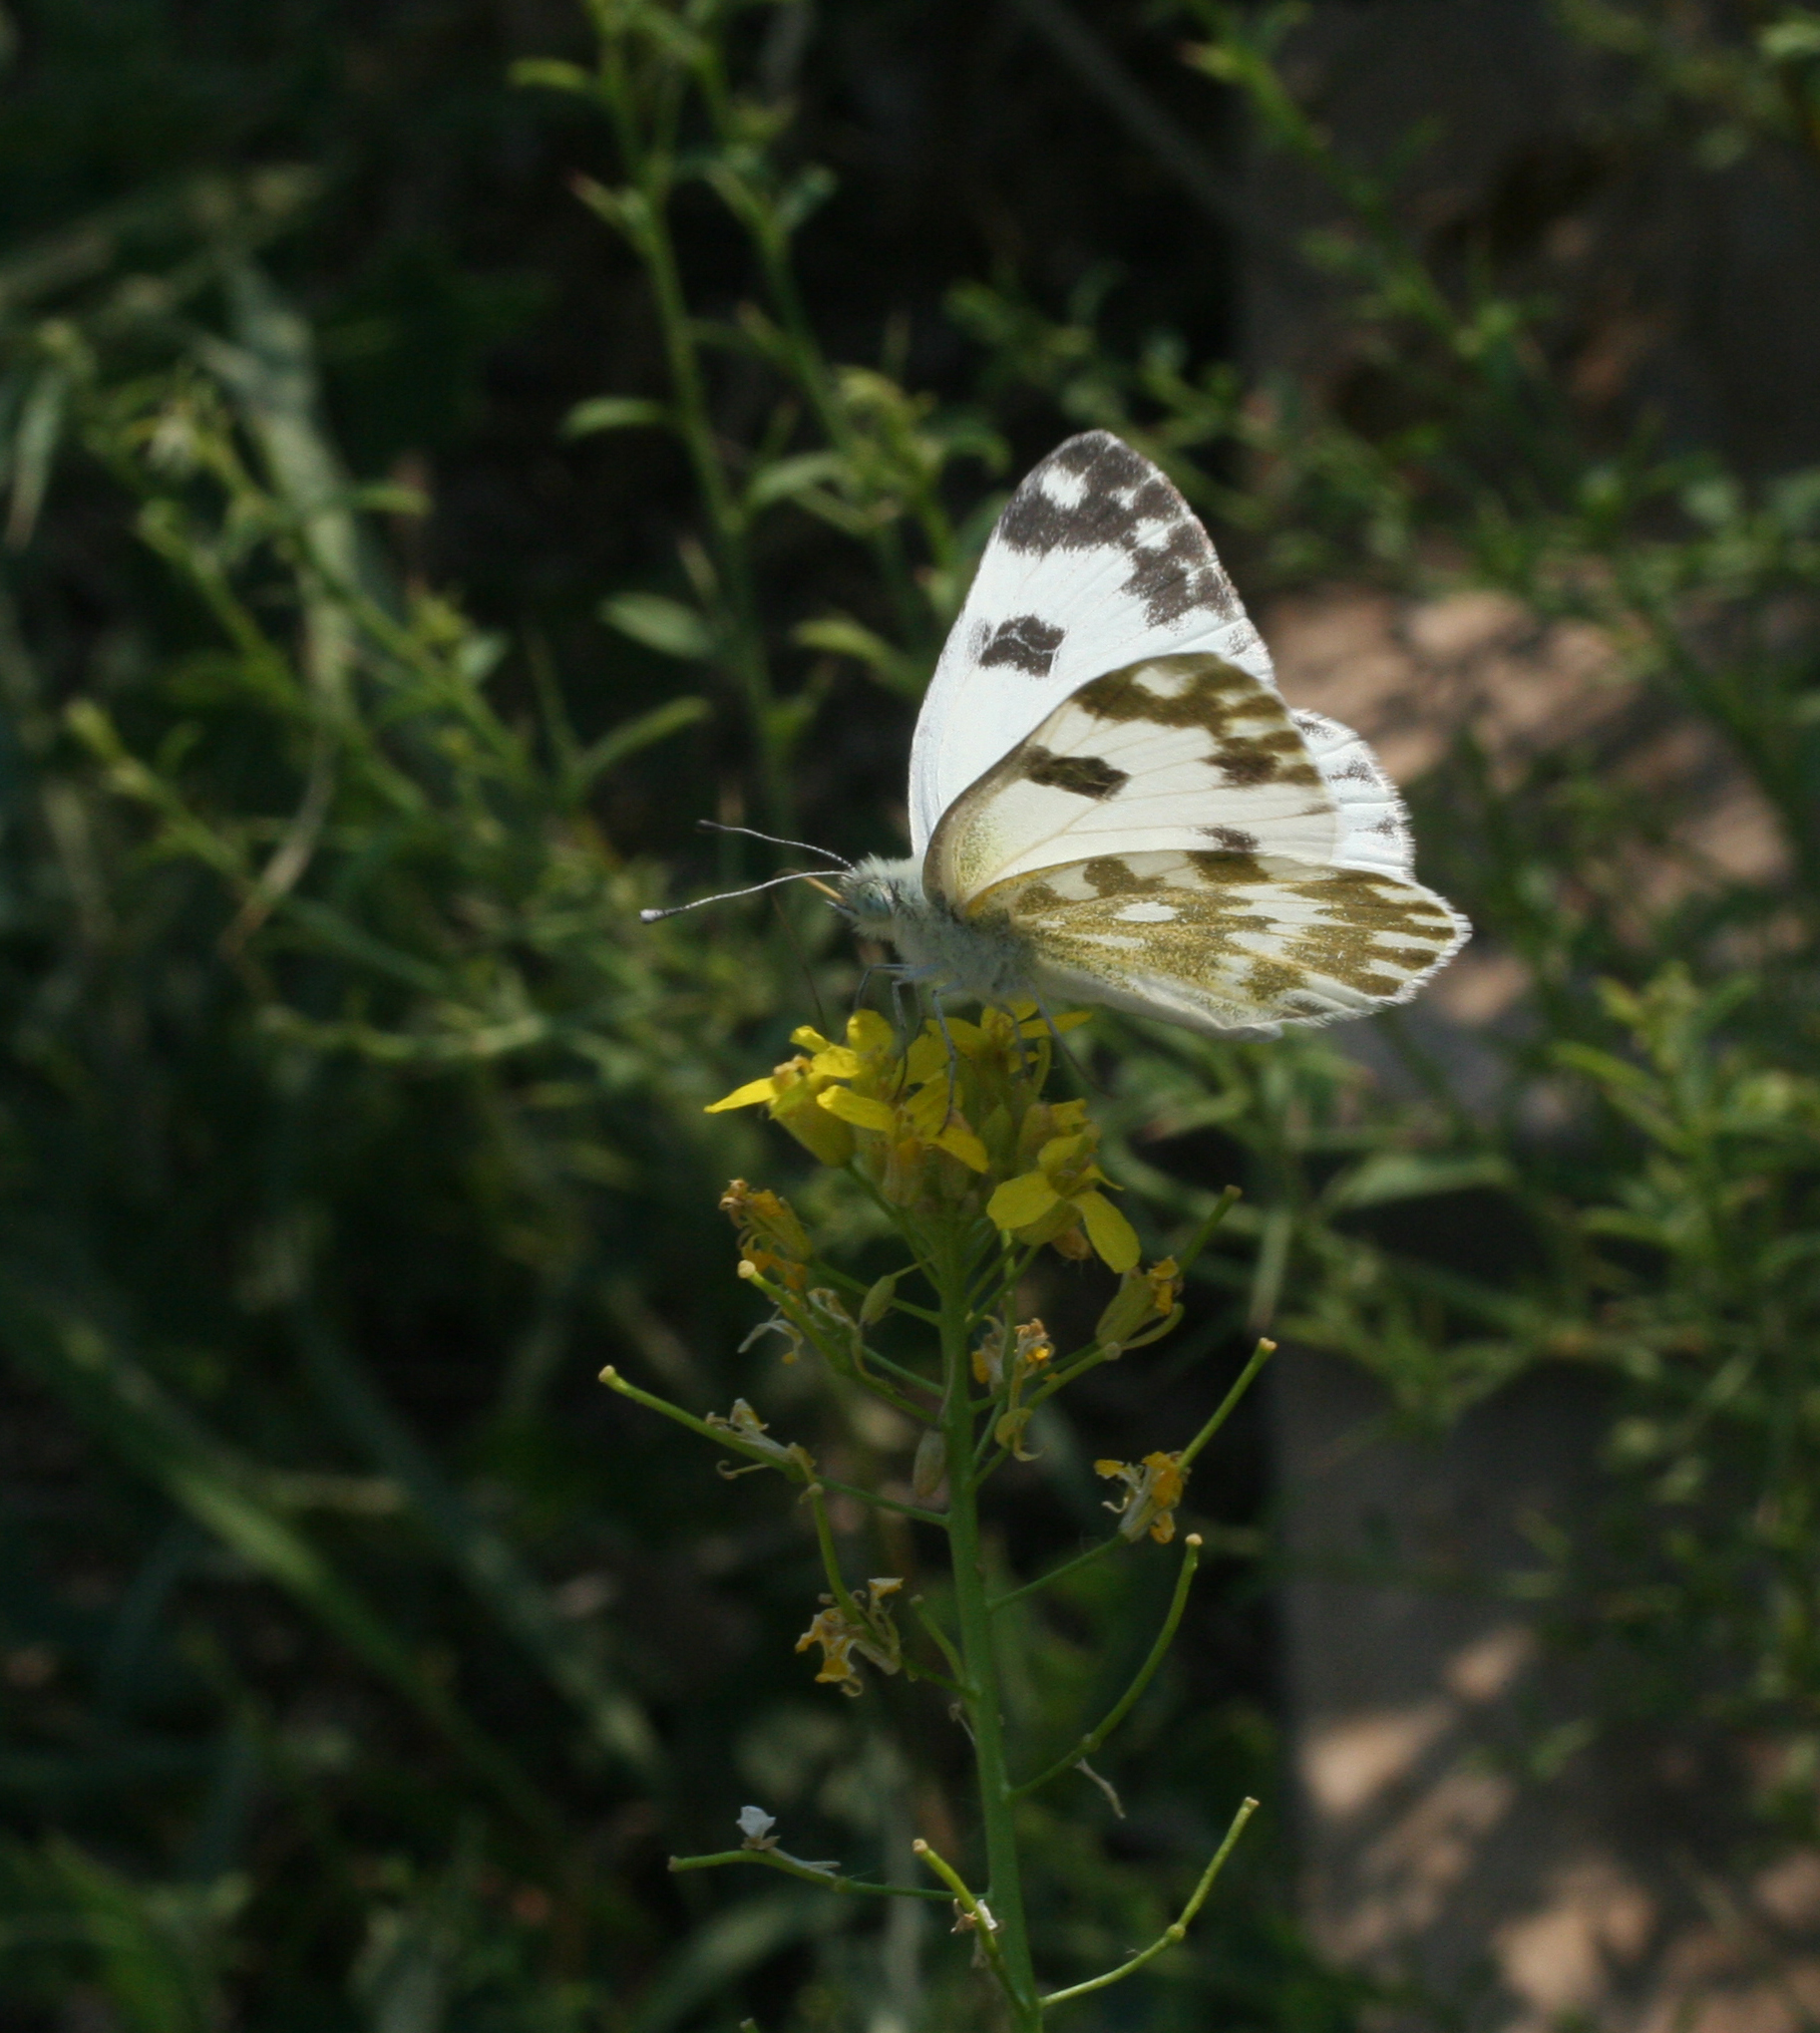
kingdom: Animalia
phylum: Arthropoda
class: Insecta
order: Lepidoptera
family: Pieridae
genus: Pontia
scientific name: Pontia edusa
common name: Eastern bath white
